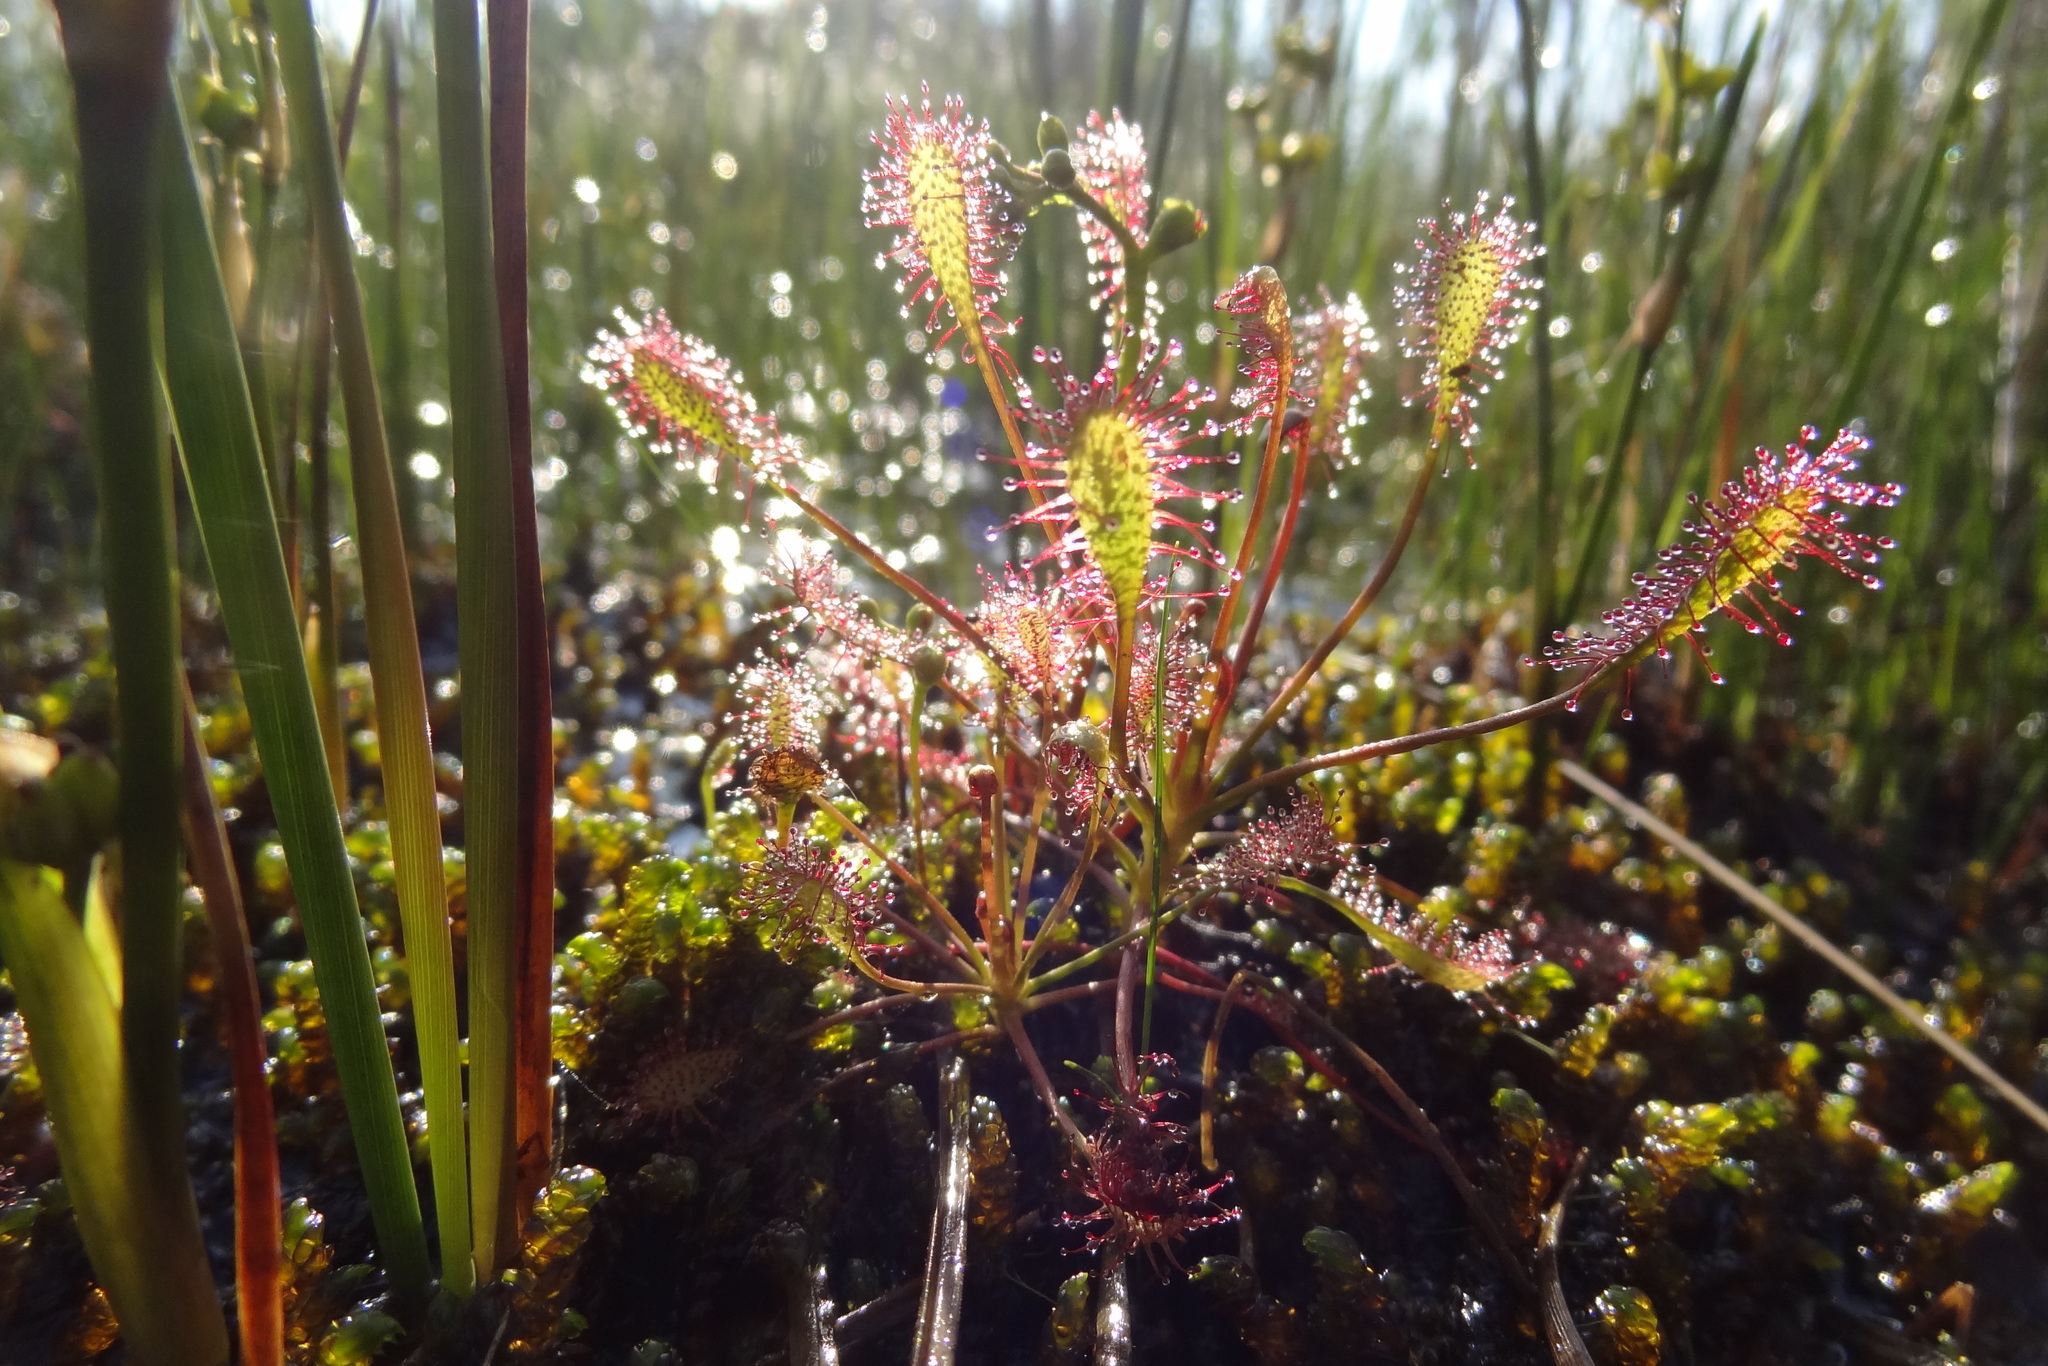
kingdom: Plantae
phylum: Tracheophyta
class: Magnoliopsida
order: Caryophyllales
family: Droseraceae
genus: Drosera
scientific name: Drosera intermedia
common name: Oblong-leaved sundew
